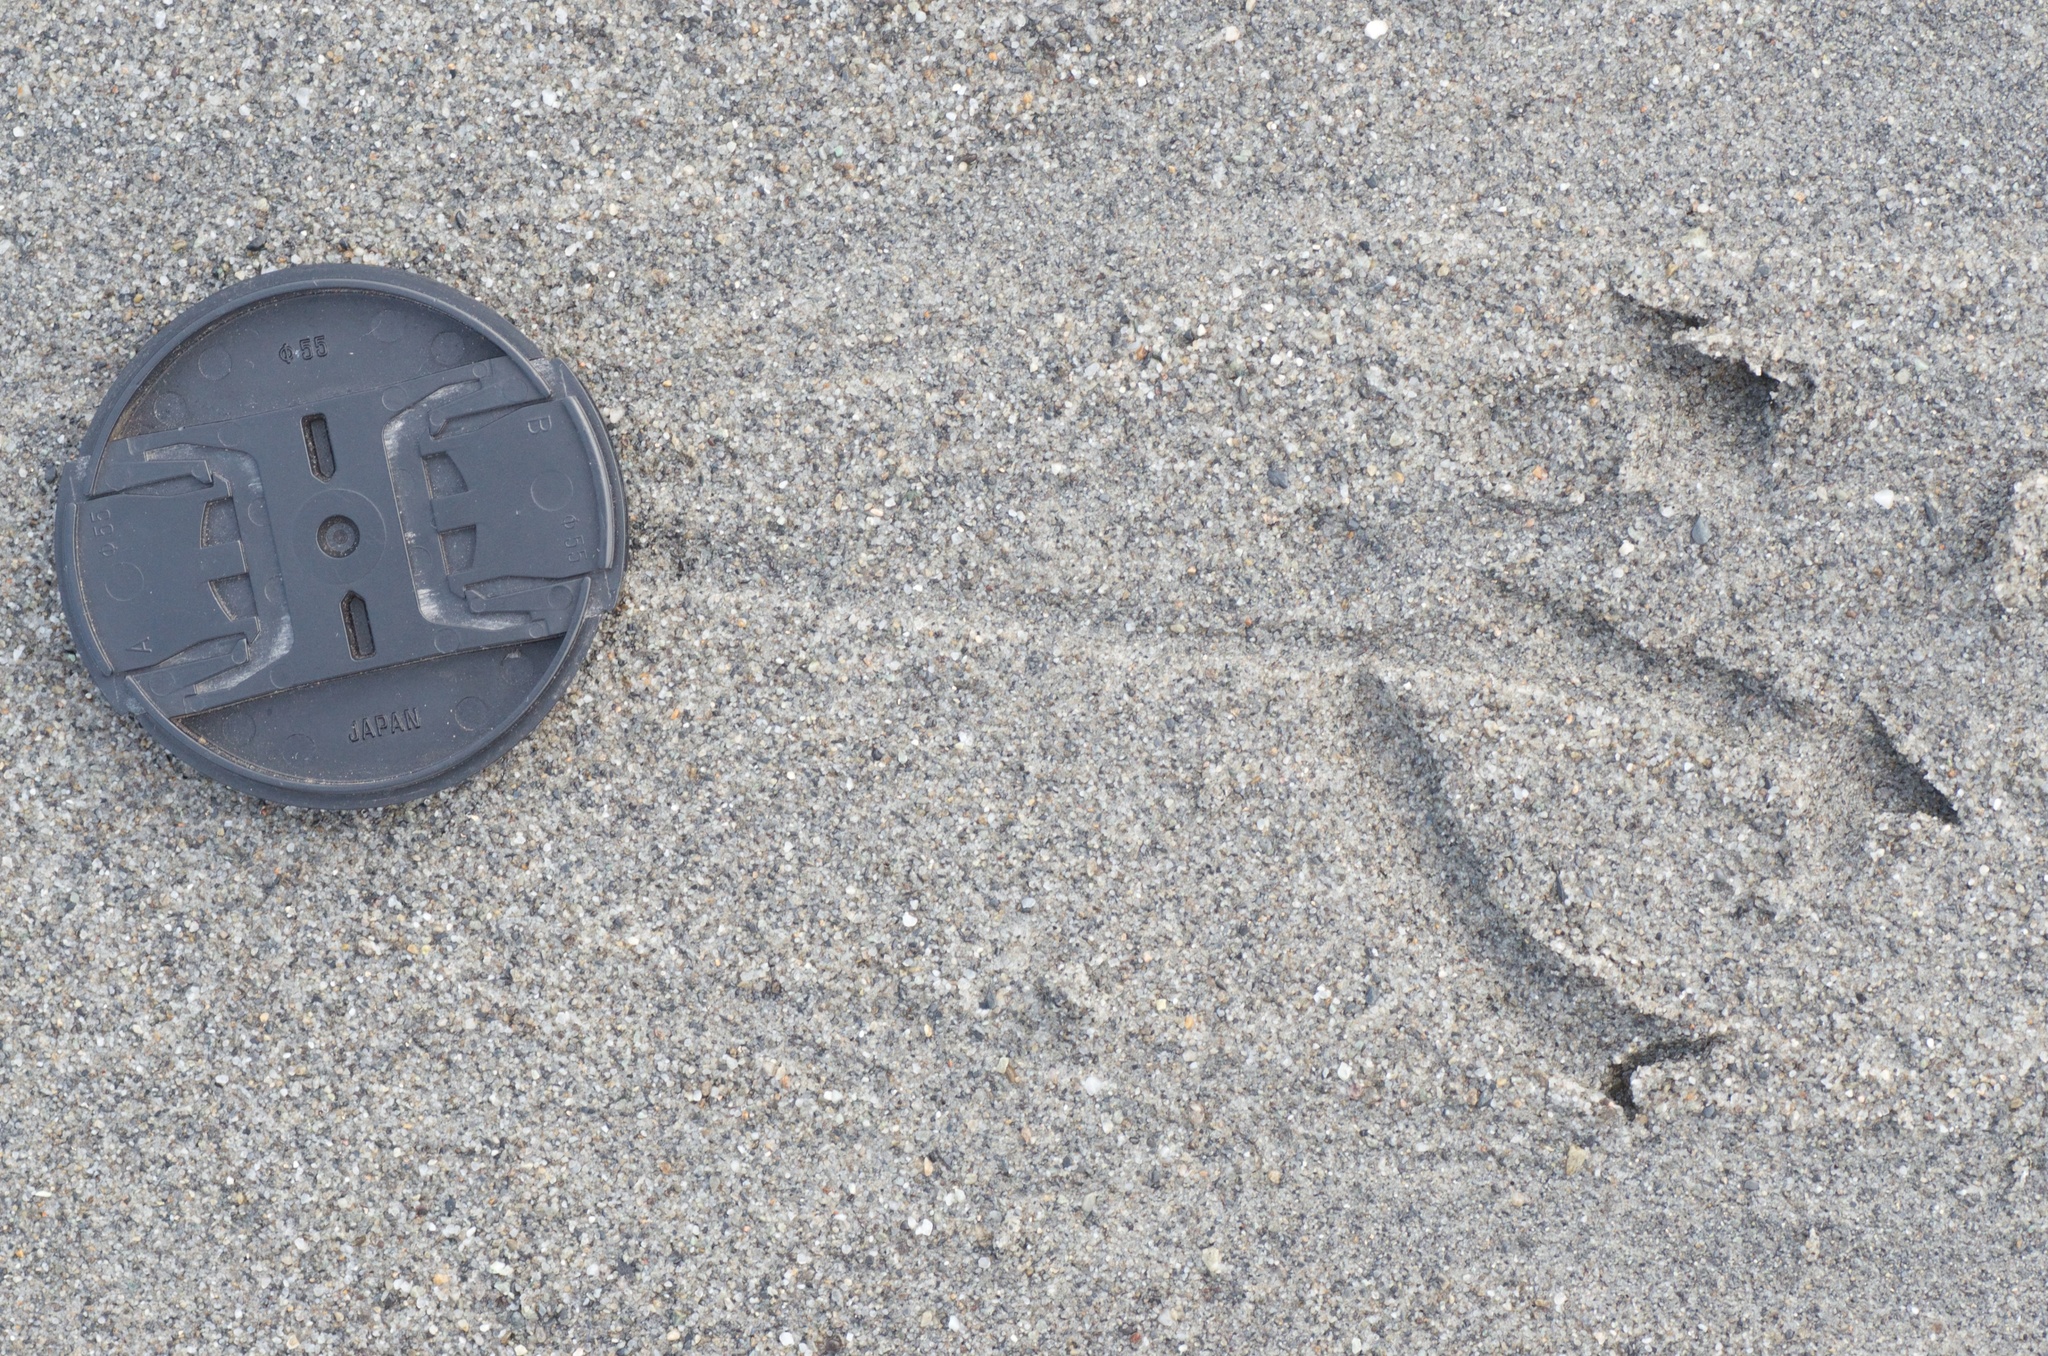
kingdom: Animalia
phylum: Chordata
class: Aves
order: Charadriiformes
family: Laridae
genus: Larus
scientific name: Larus dominicanus
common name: Kelp gull
